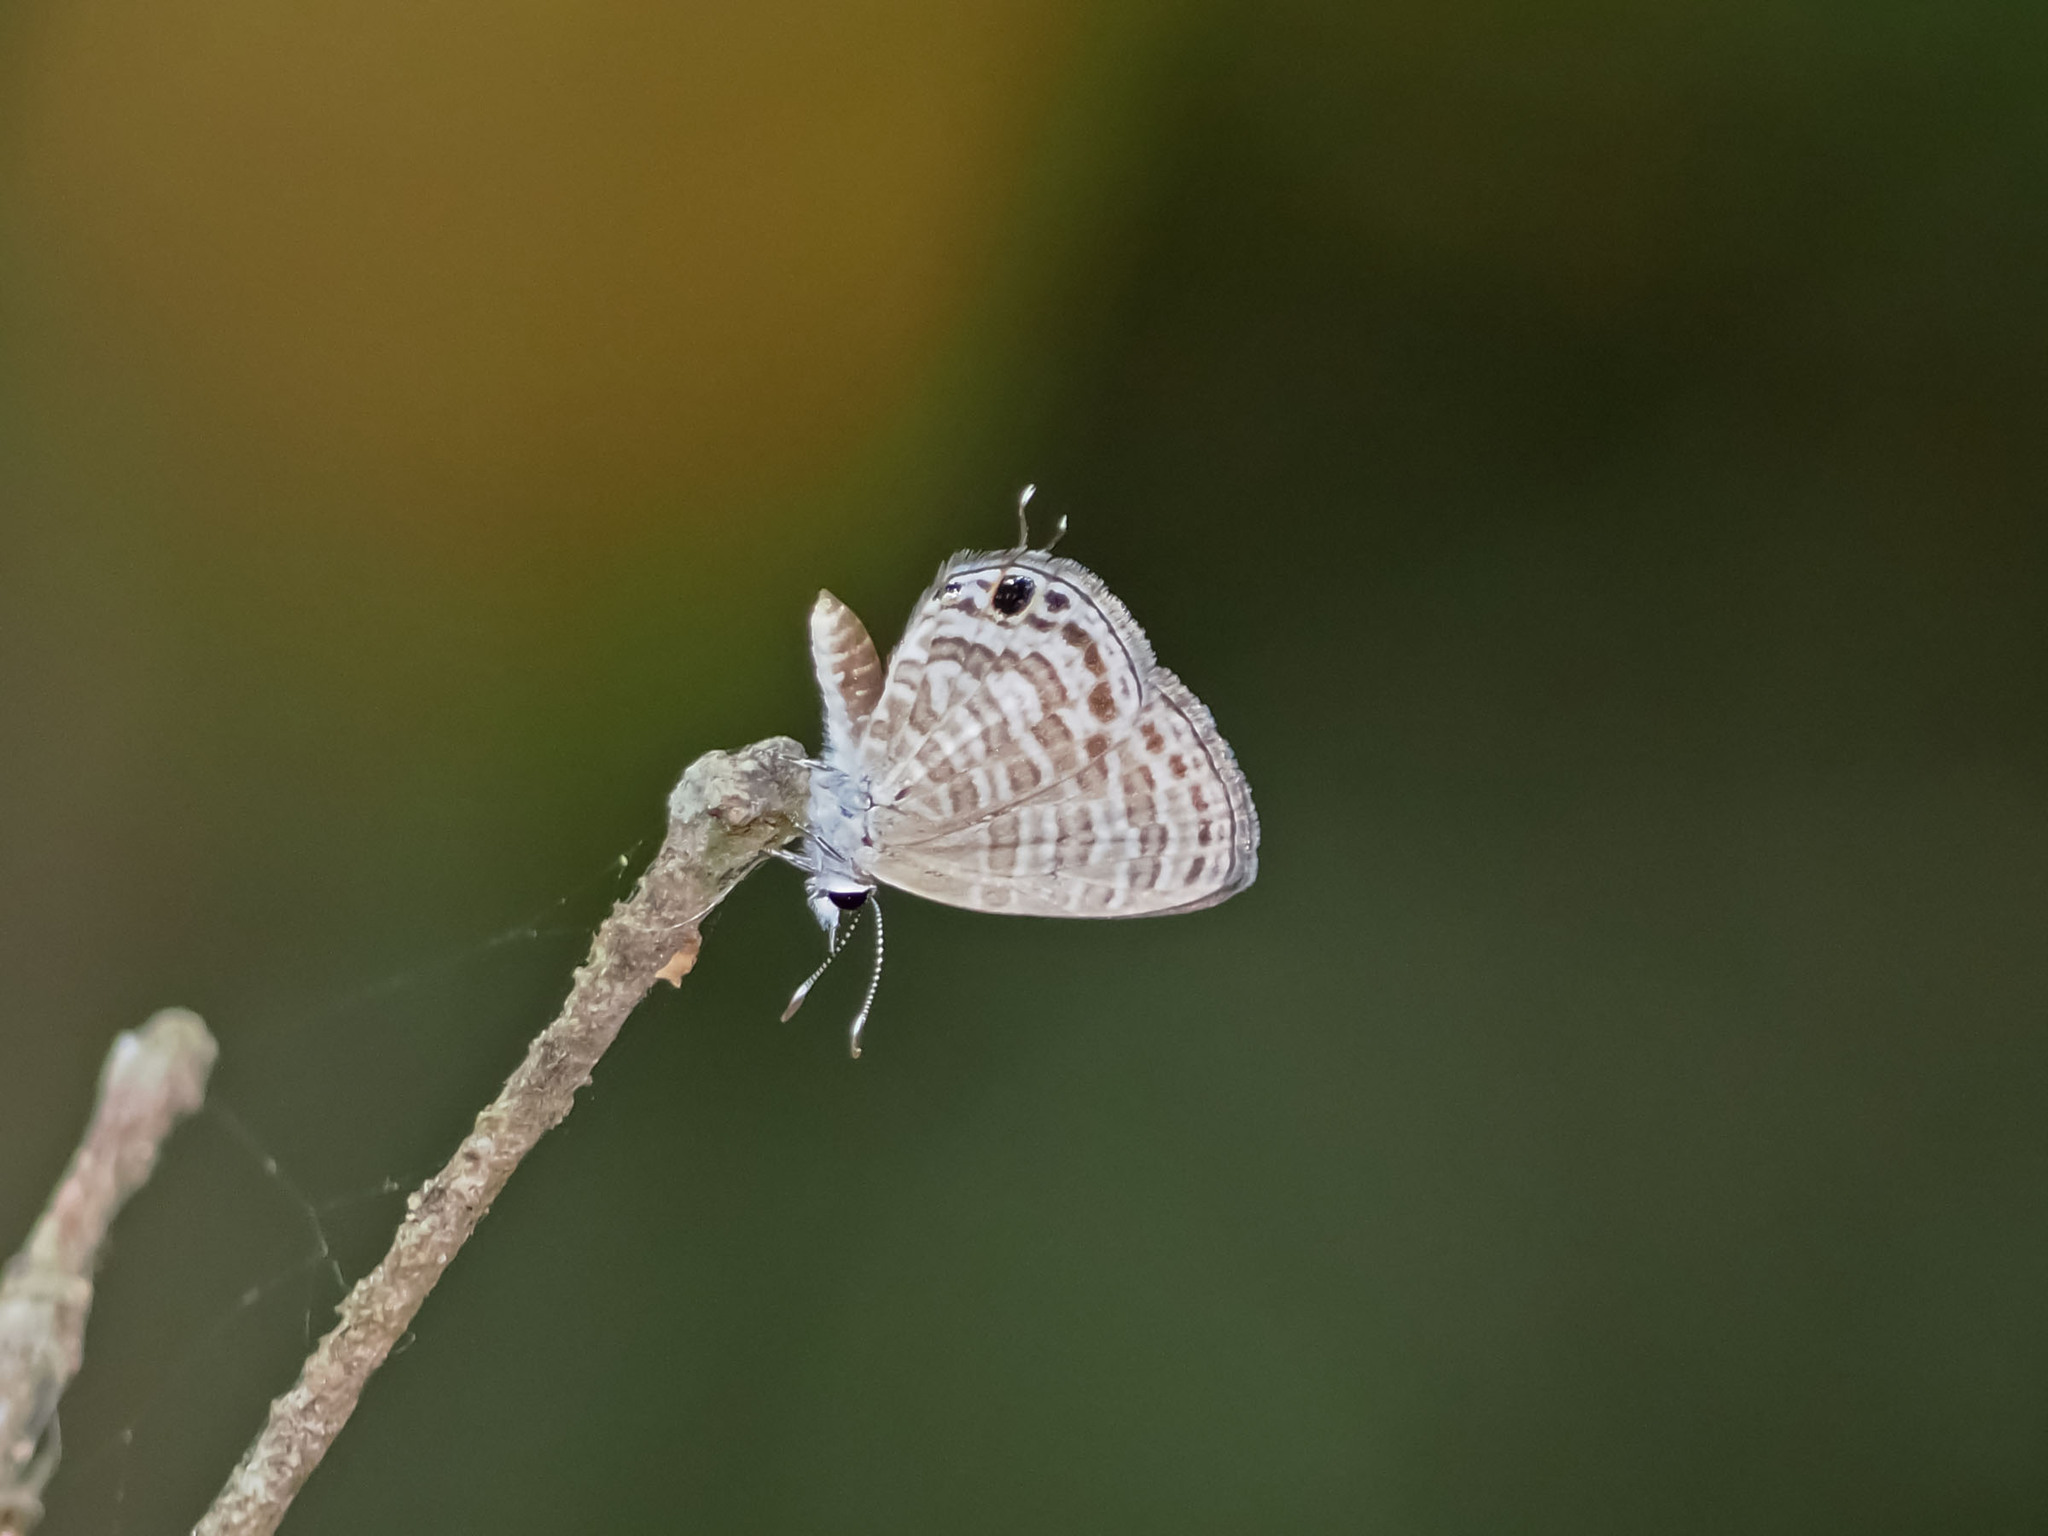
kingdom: Animalia
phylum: Arthropoda
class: Insecta
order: Lepidoptera
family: Lycaenidae
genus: Nacaduba
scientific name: Nacaduba berenice
